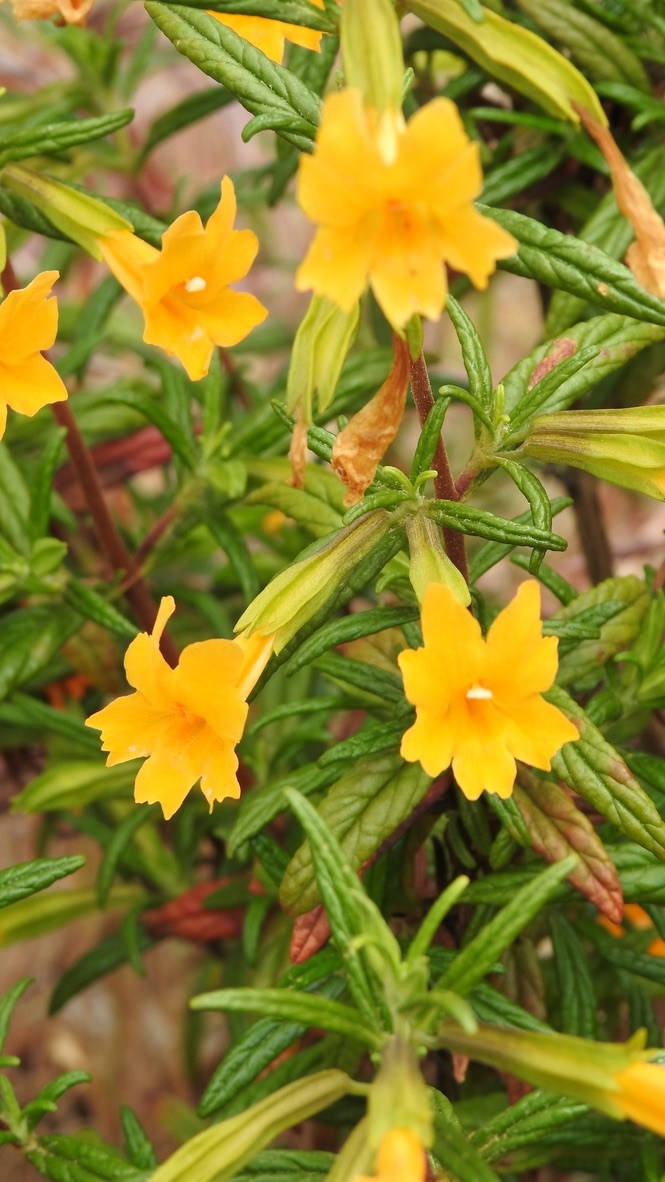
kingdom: Plantae
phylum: Tracheophyta
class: Magnoliopsida
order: Lamiales
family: Phrymaceae
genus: Diplacus
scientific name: Diplacus aurantiacus
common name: Bush monkey-flower
